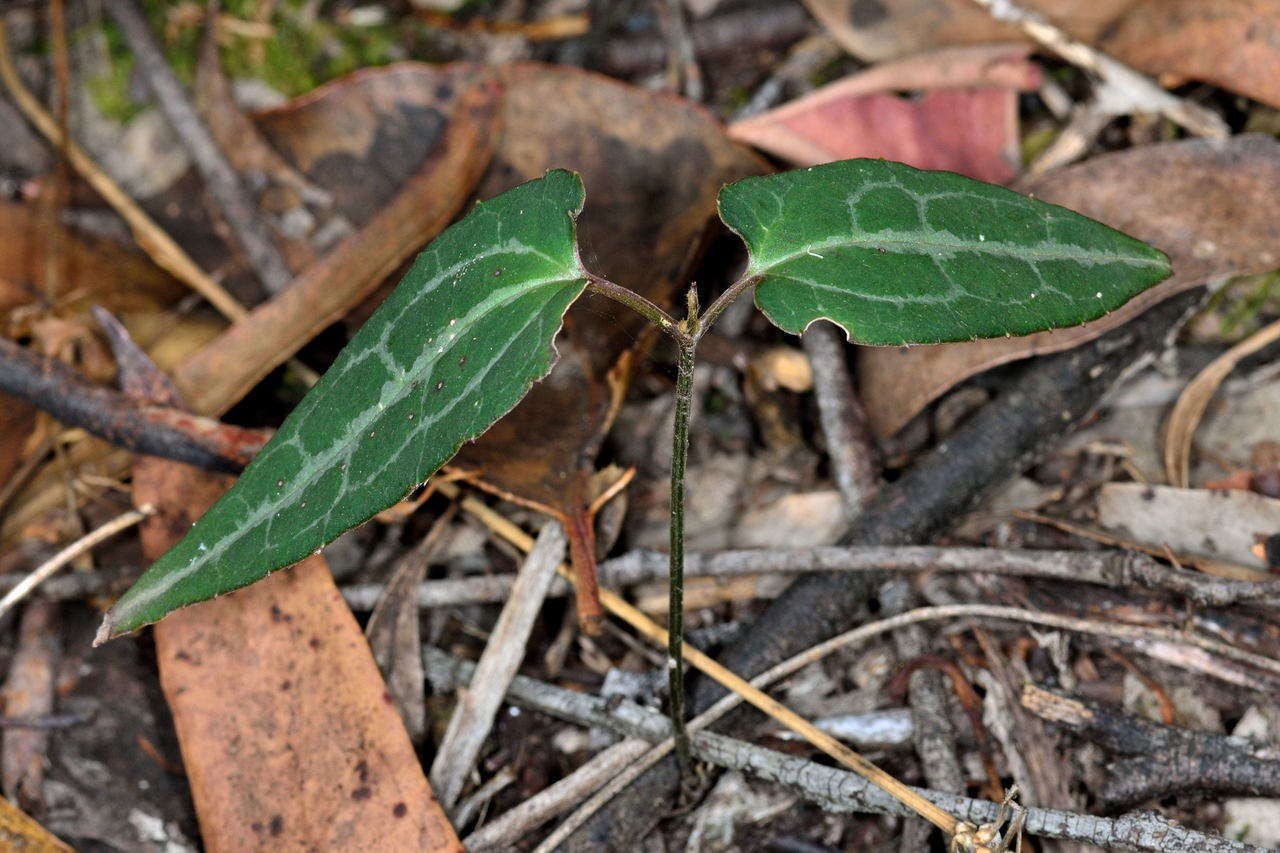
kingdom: Plantae
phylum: Tracheophyta
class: Magnoliopsida
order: Ranunculales
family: Ranunculaceae
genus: Clematis
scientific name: Clematis aristata
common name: Mountain clematis
